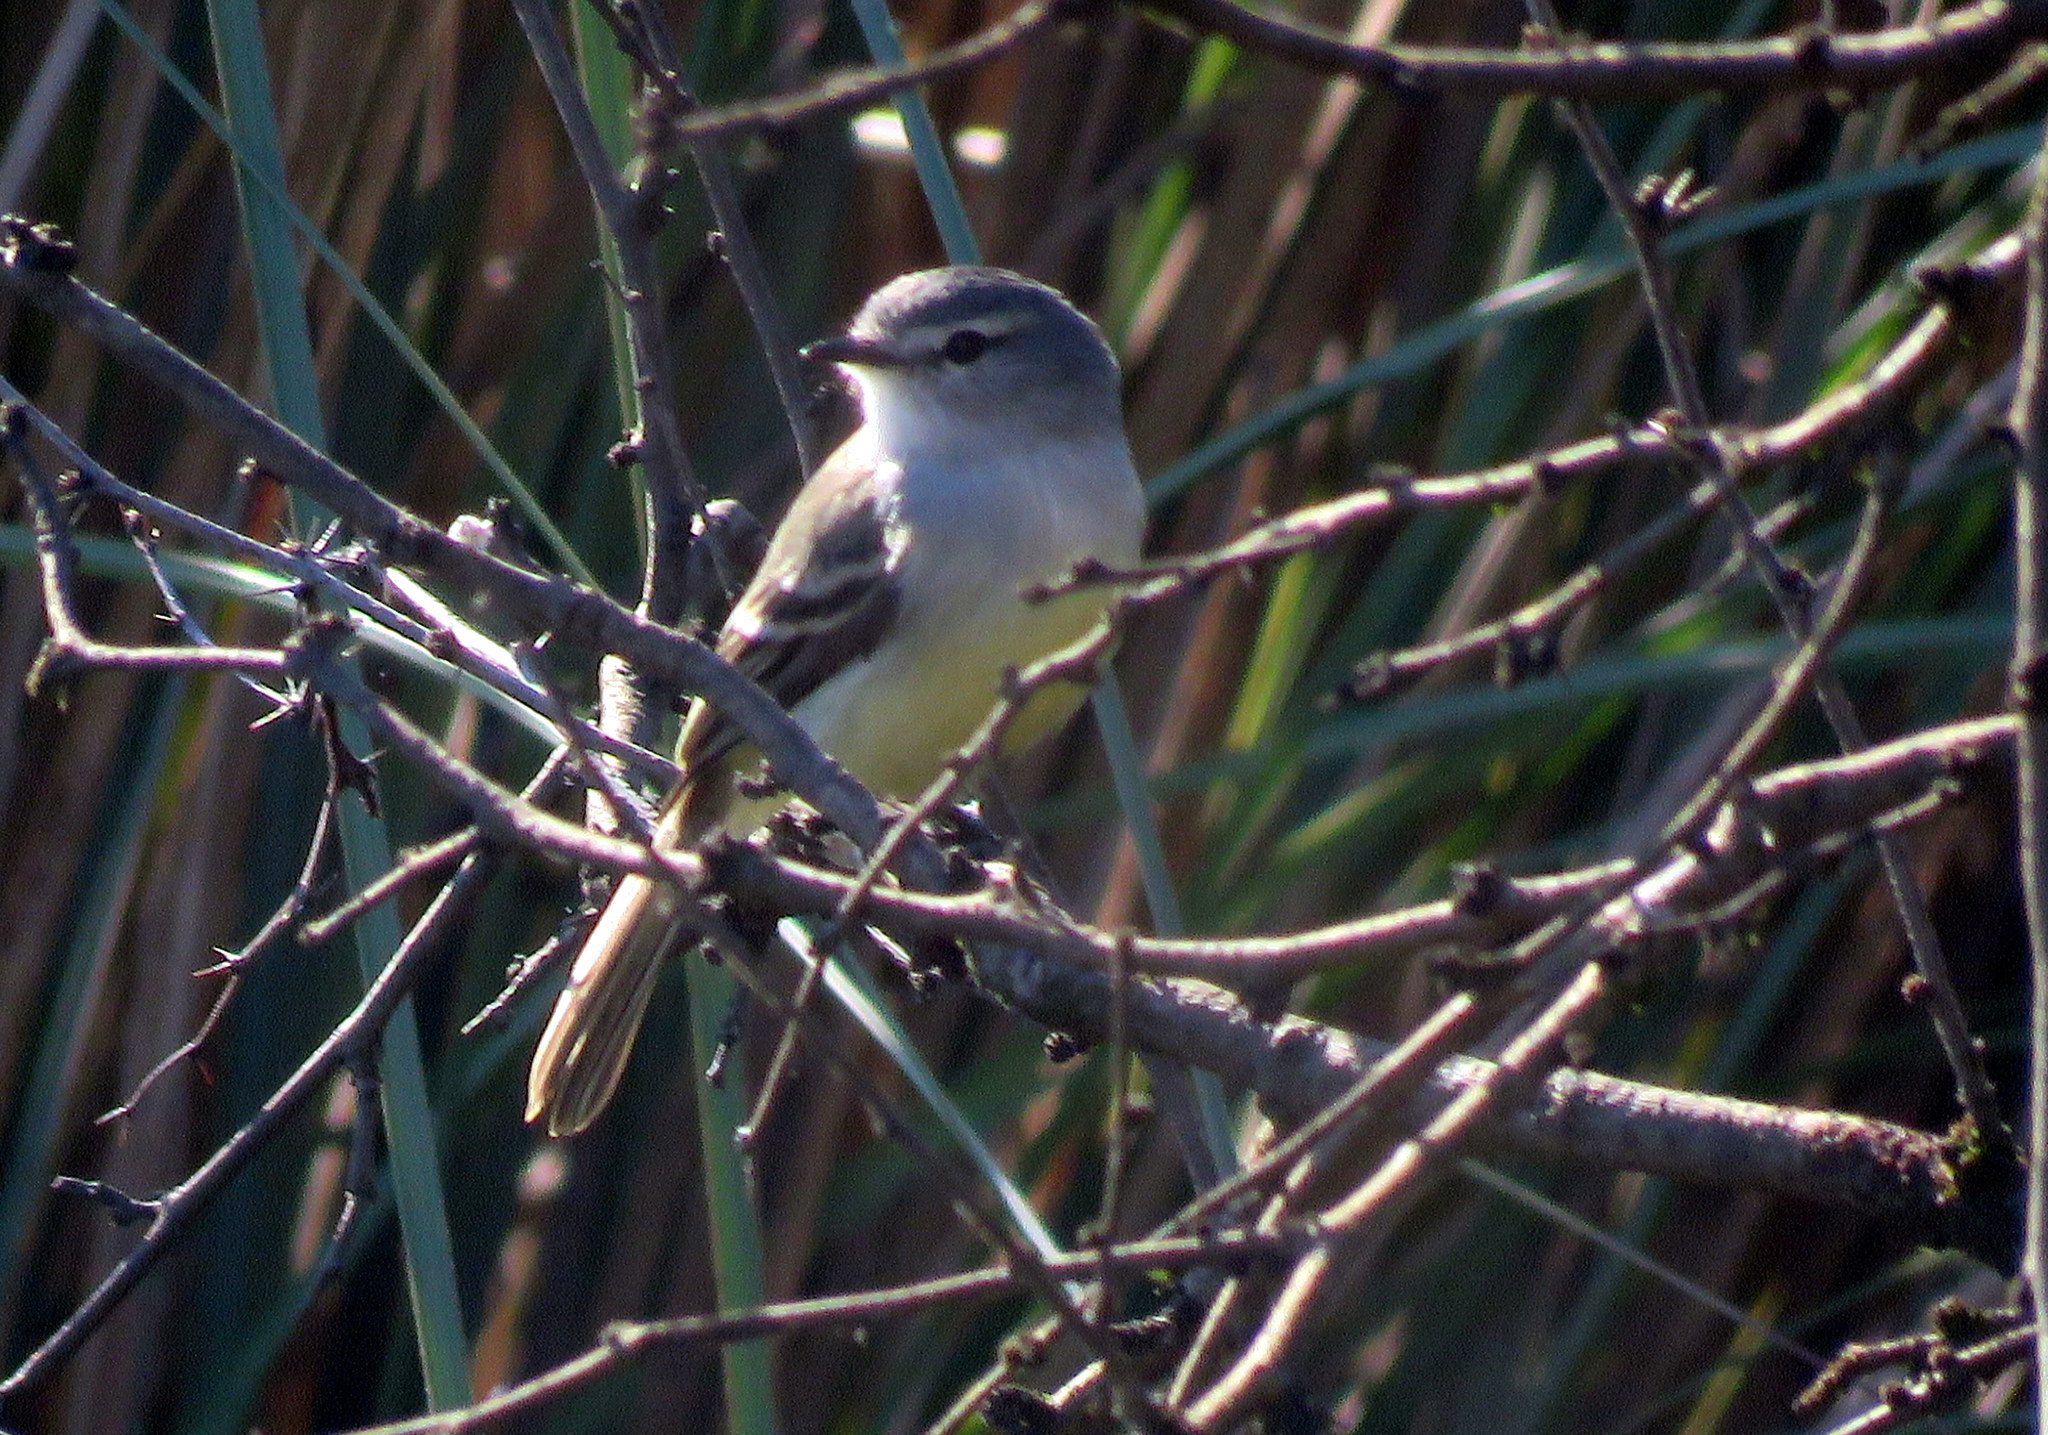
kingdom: Animalia
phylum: Chordata
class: Aves
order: Passeriformes
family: Tyrannidae
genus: Serpophaga
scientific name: Serpophaga subcristata
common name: White-crested tyrannulet
